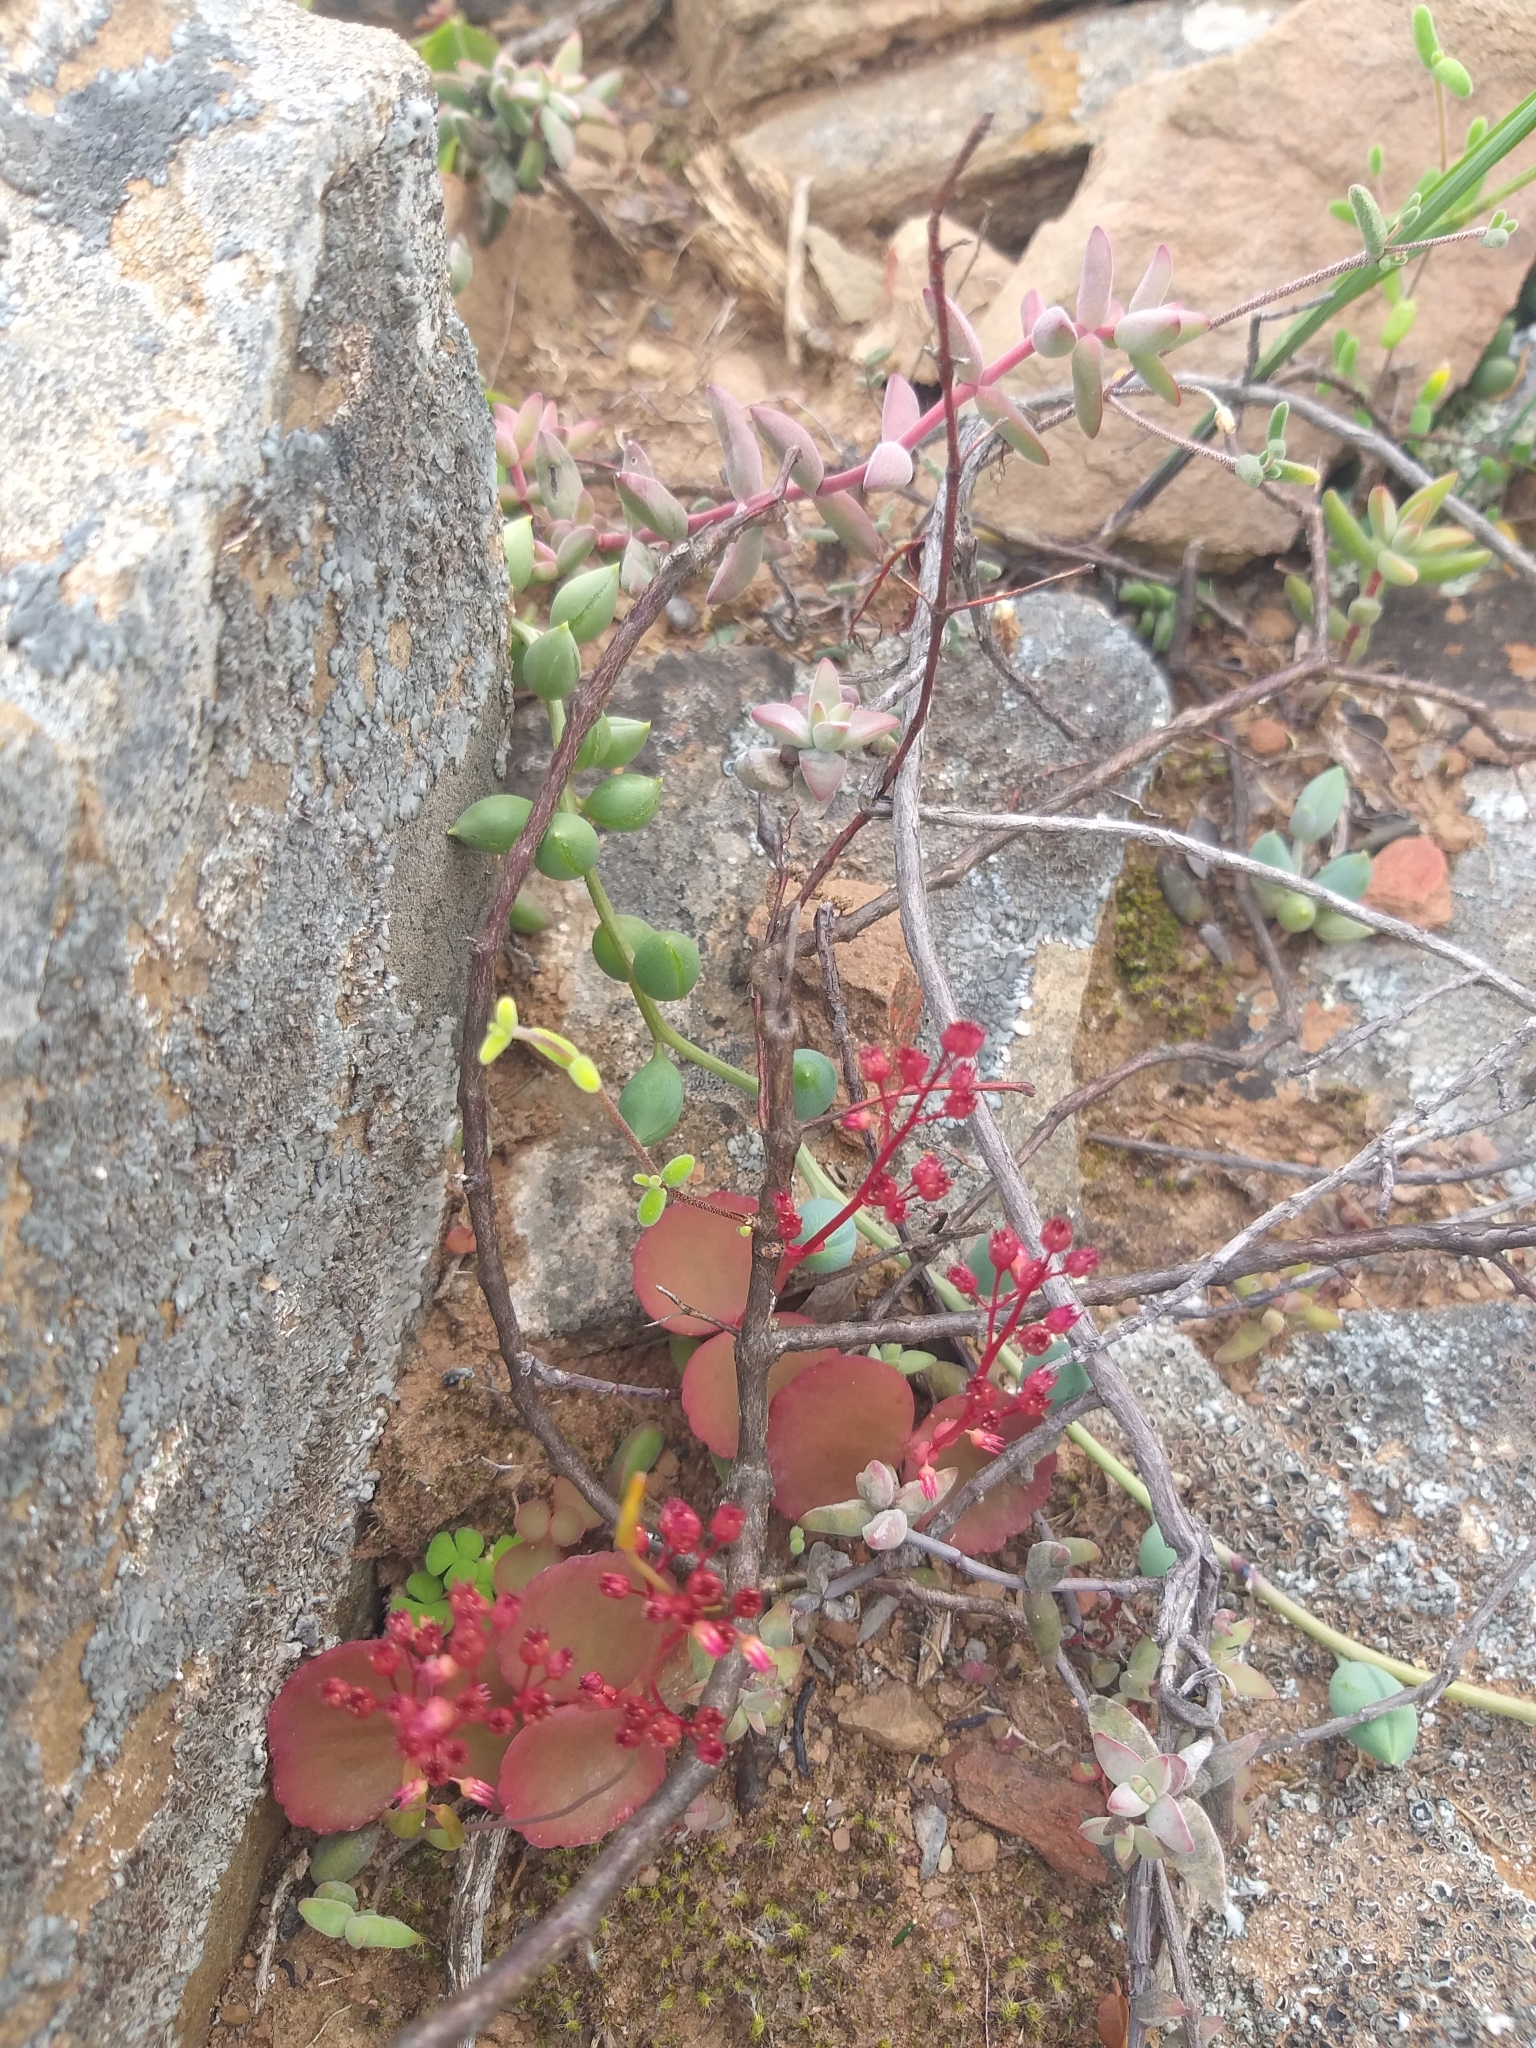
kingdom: Plantae
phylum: Tracheophyta
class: Magnoliopsida
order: Saxifragales
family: Crassulaceae
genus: Crassula
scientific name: Crassula umbella
